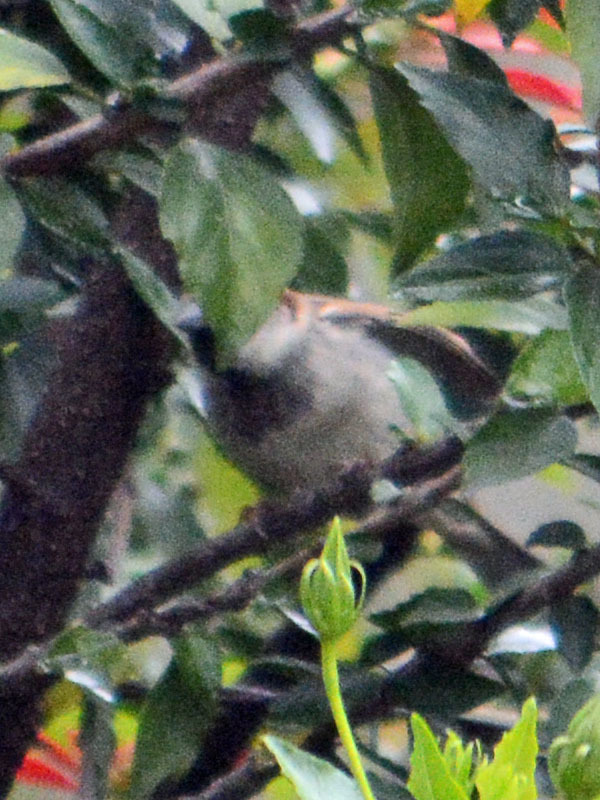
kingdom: Animalia
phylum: Chordata
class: Aves
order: Passeriformes
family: Passeridae
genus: Passer
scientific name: Passer domesticus
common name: House sparrow
